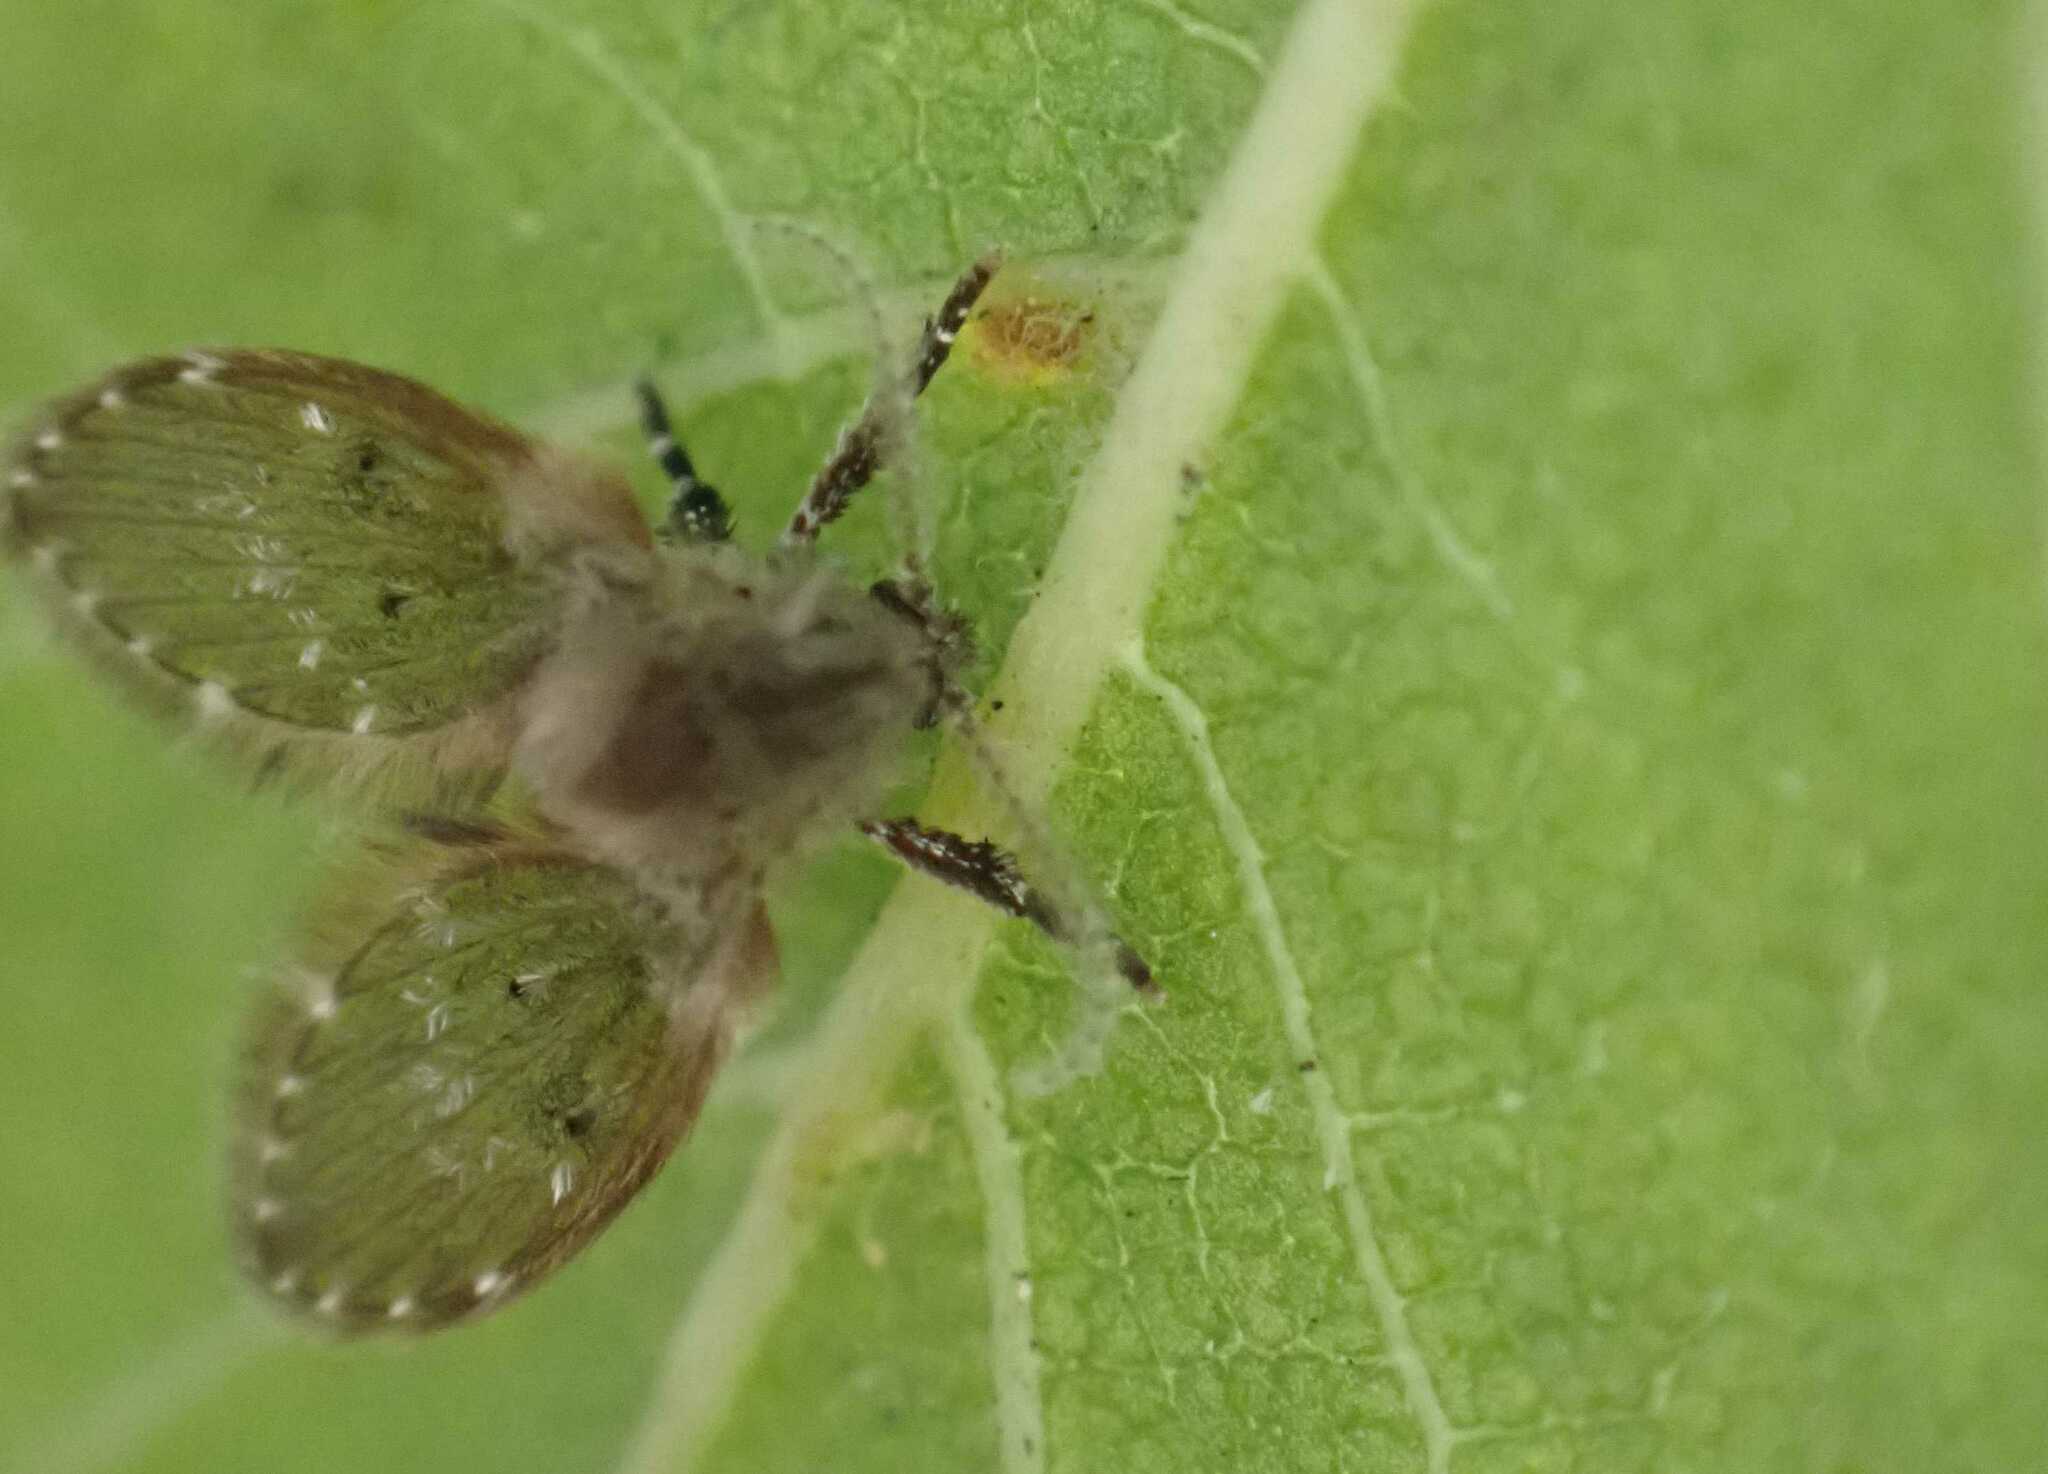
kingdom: Animalia
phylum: Arthropoda
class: Insecta
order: Diptera
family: Psychodidae
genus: Clogmia
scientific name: Clogmia albipunctatus
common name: White-spotted moth fly
